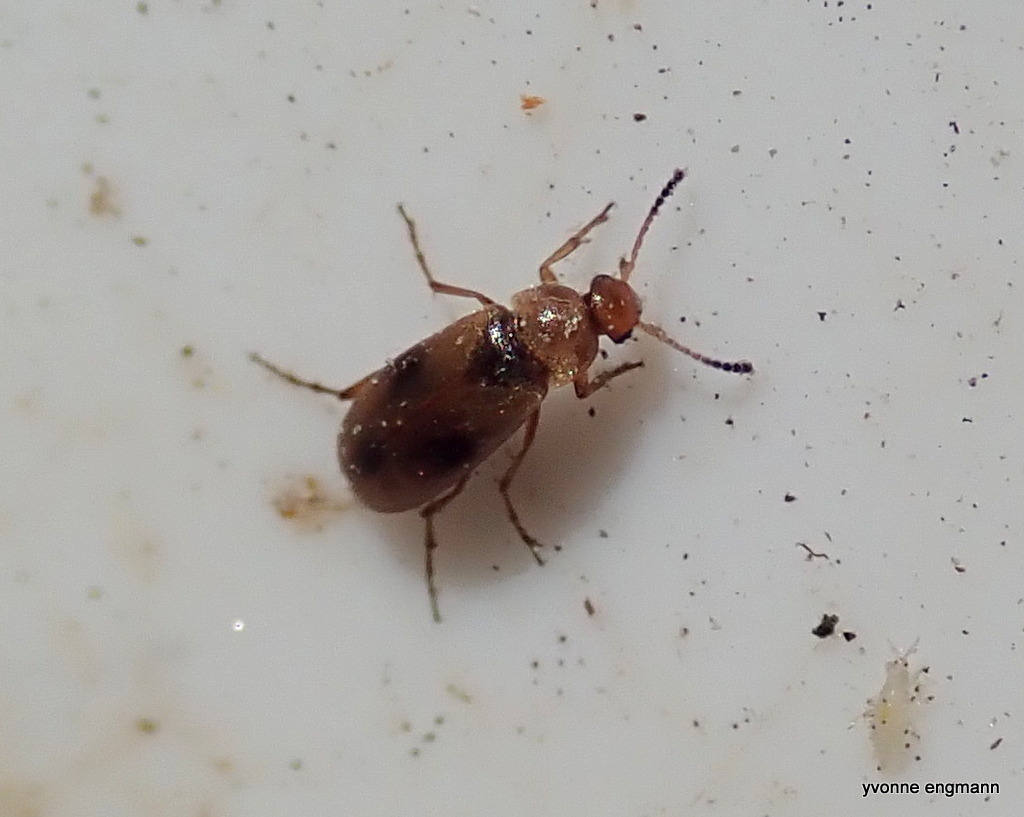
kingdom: Animalia
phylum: Arthropoda
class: Insecta
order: Coleoptera
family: Scraptiidae
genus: Anaspis
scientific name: Anaspis maculata
